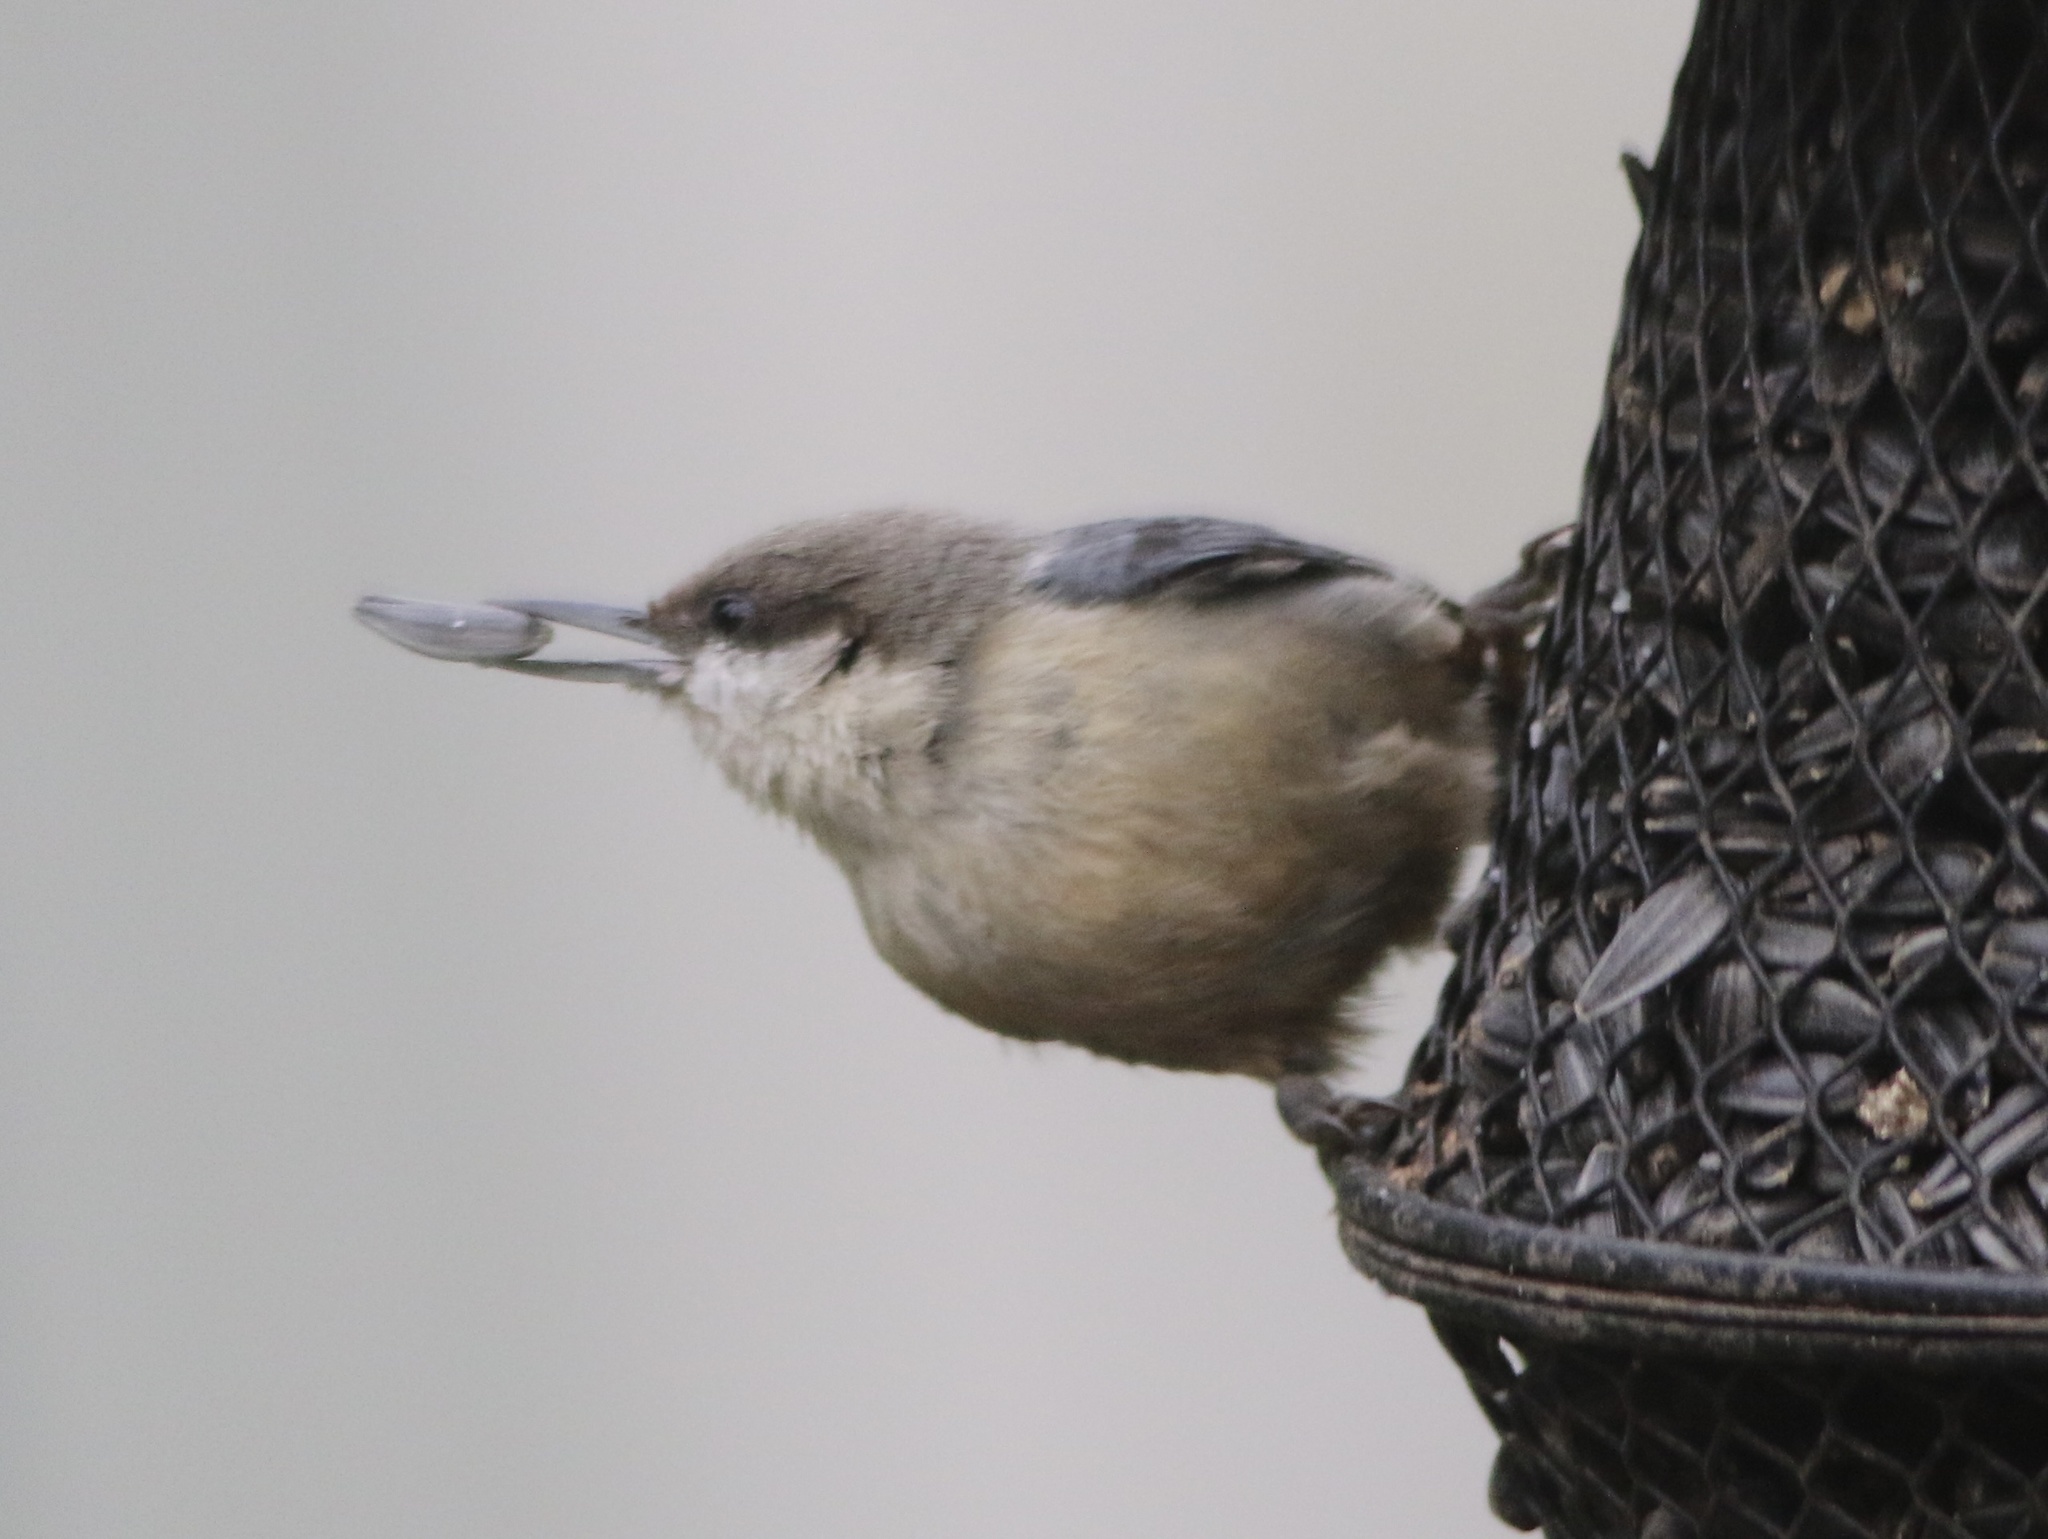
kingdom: Animalia
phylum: Chordata
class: Aves
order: Passeriformes
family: Sittidae
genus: Sitta
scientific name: Sitta pygmaea
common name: Pygmy nuthatch
